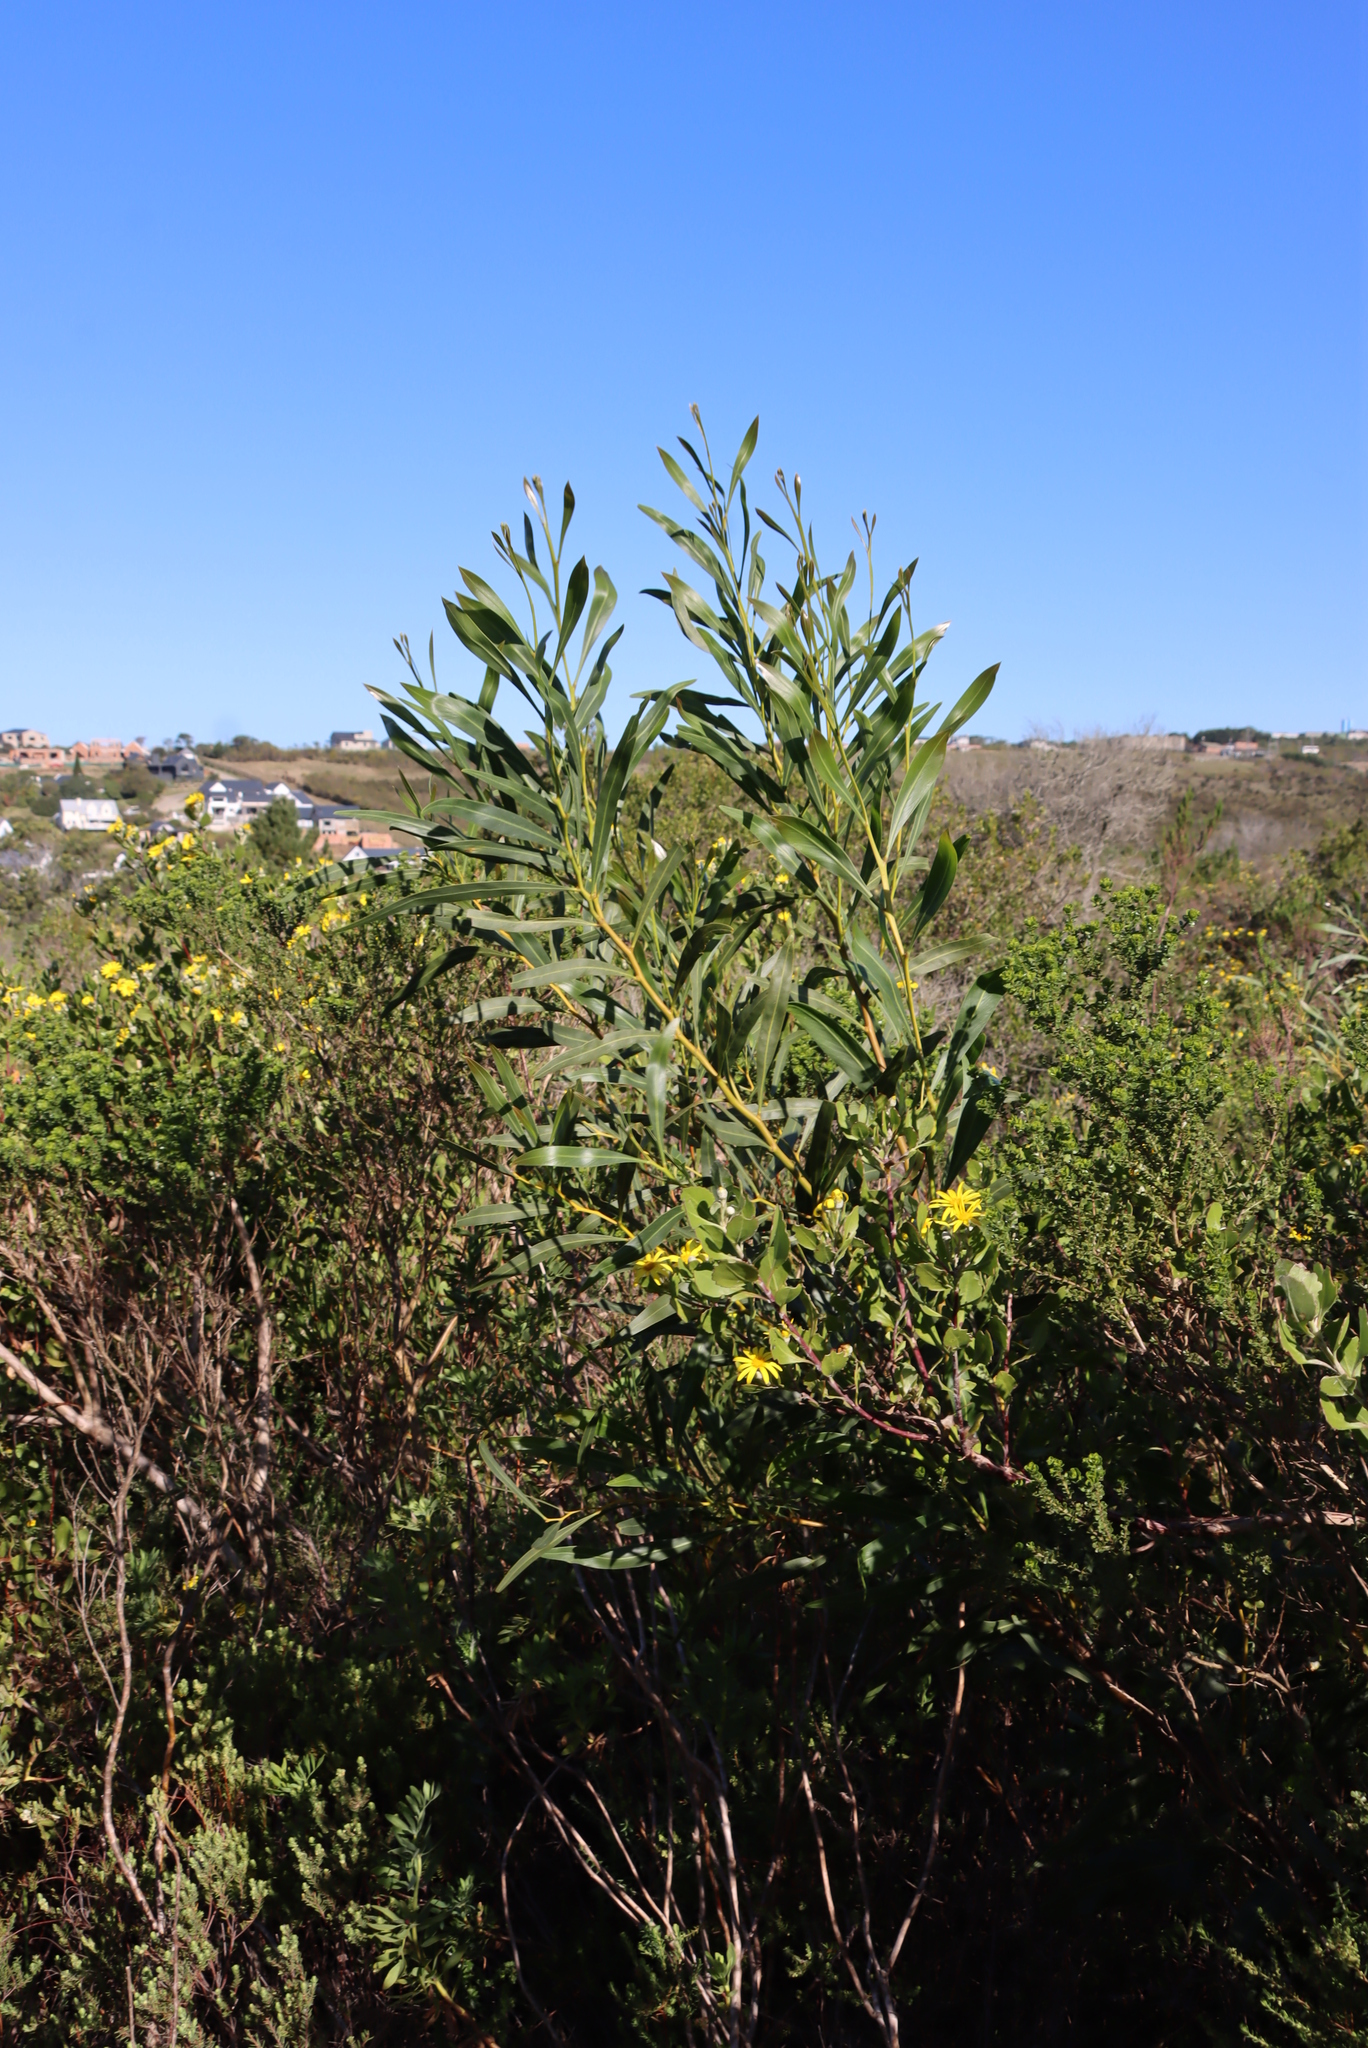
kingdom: Plantae
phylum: Tracheophyta
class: Magnoliopsida
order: Fabales
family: Fabaceae
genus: Acacia
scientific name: Acacia saligna
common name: Orange wattle
